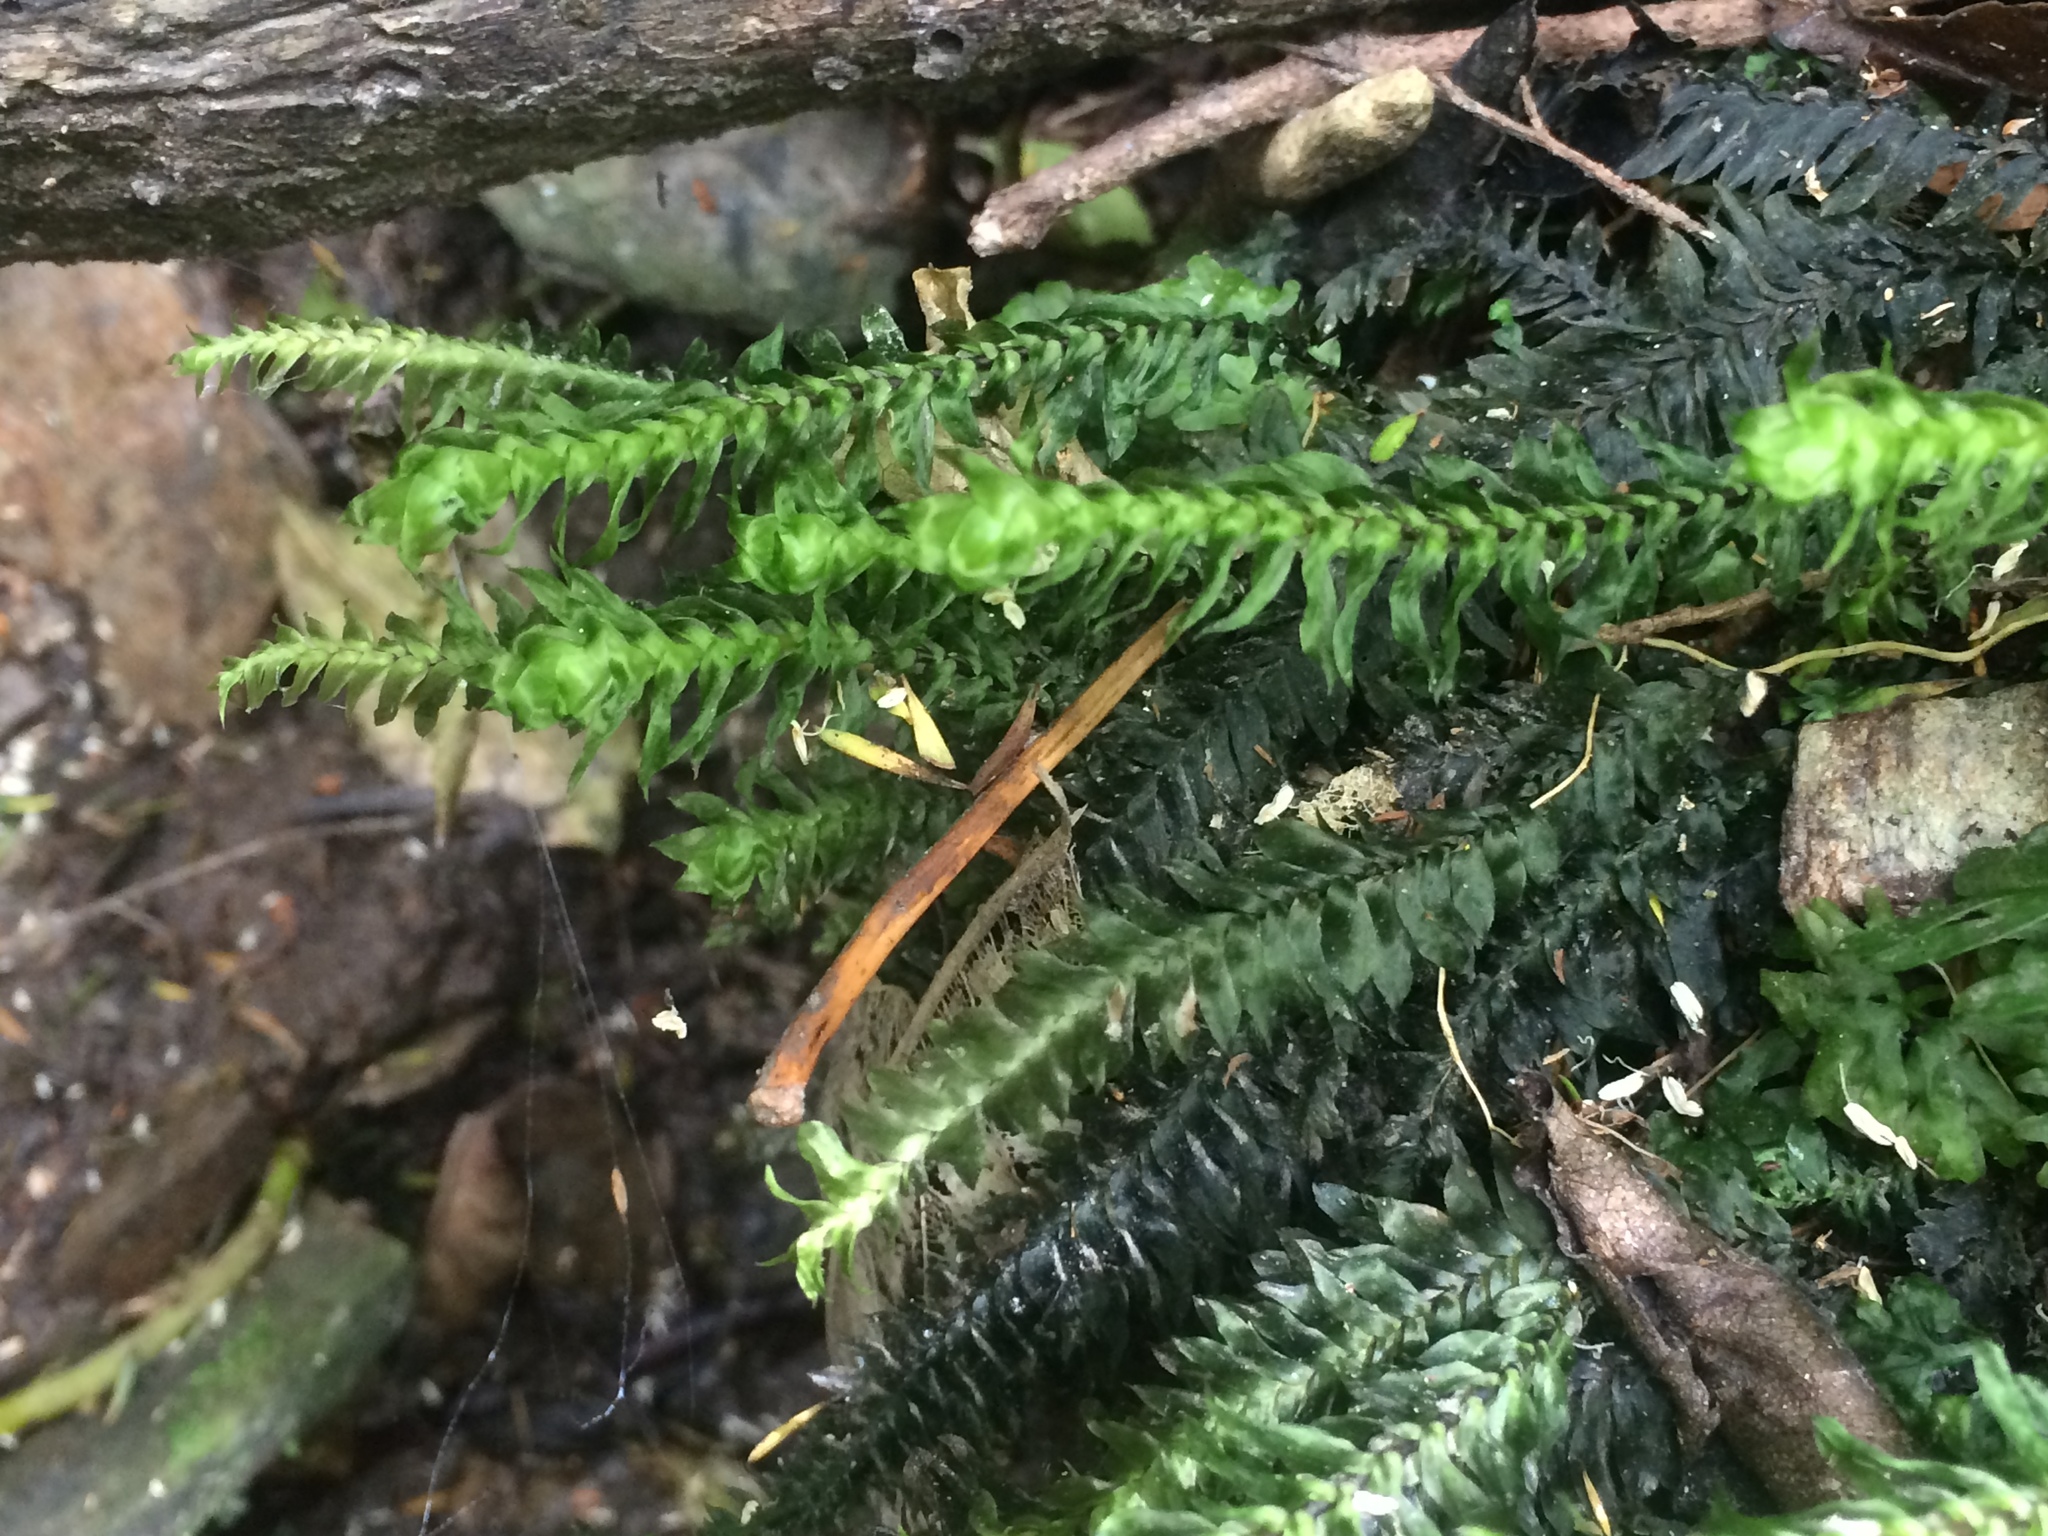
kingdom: Plantae
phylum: Bryophyta
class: Bryopsida
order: Hypopterygiales
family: Hypopterygiaceae
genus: Cyathophorum
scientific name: Cyathophorum bulbosum
